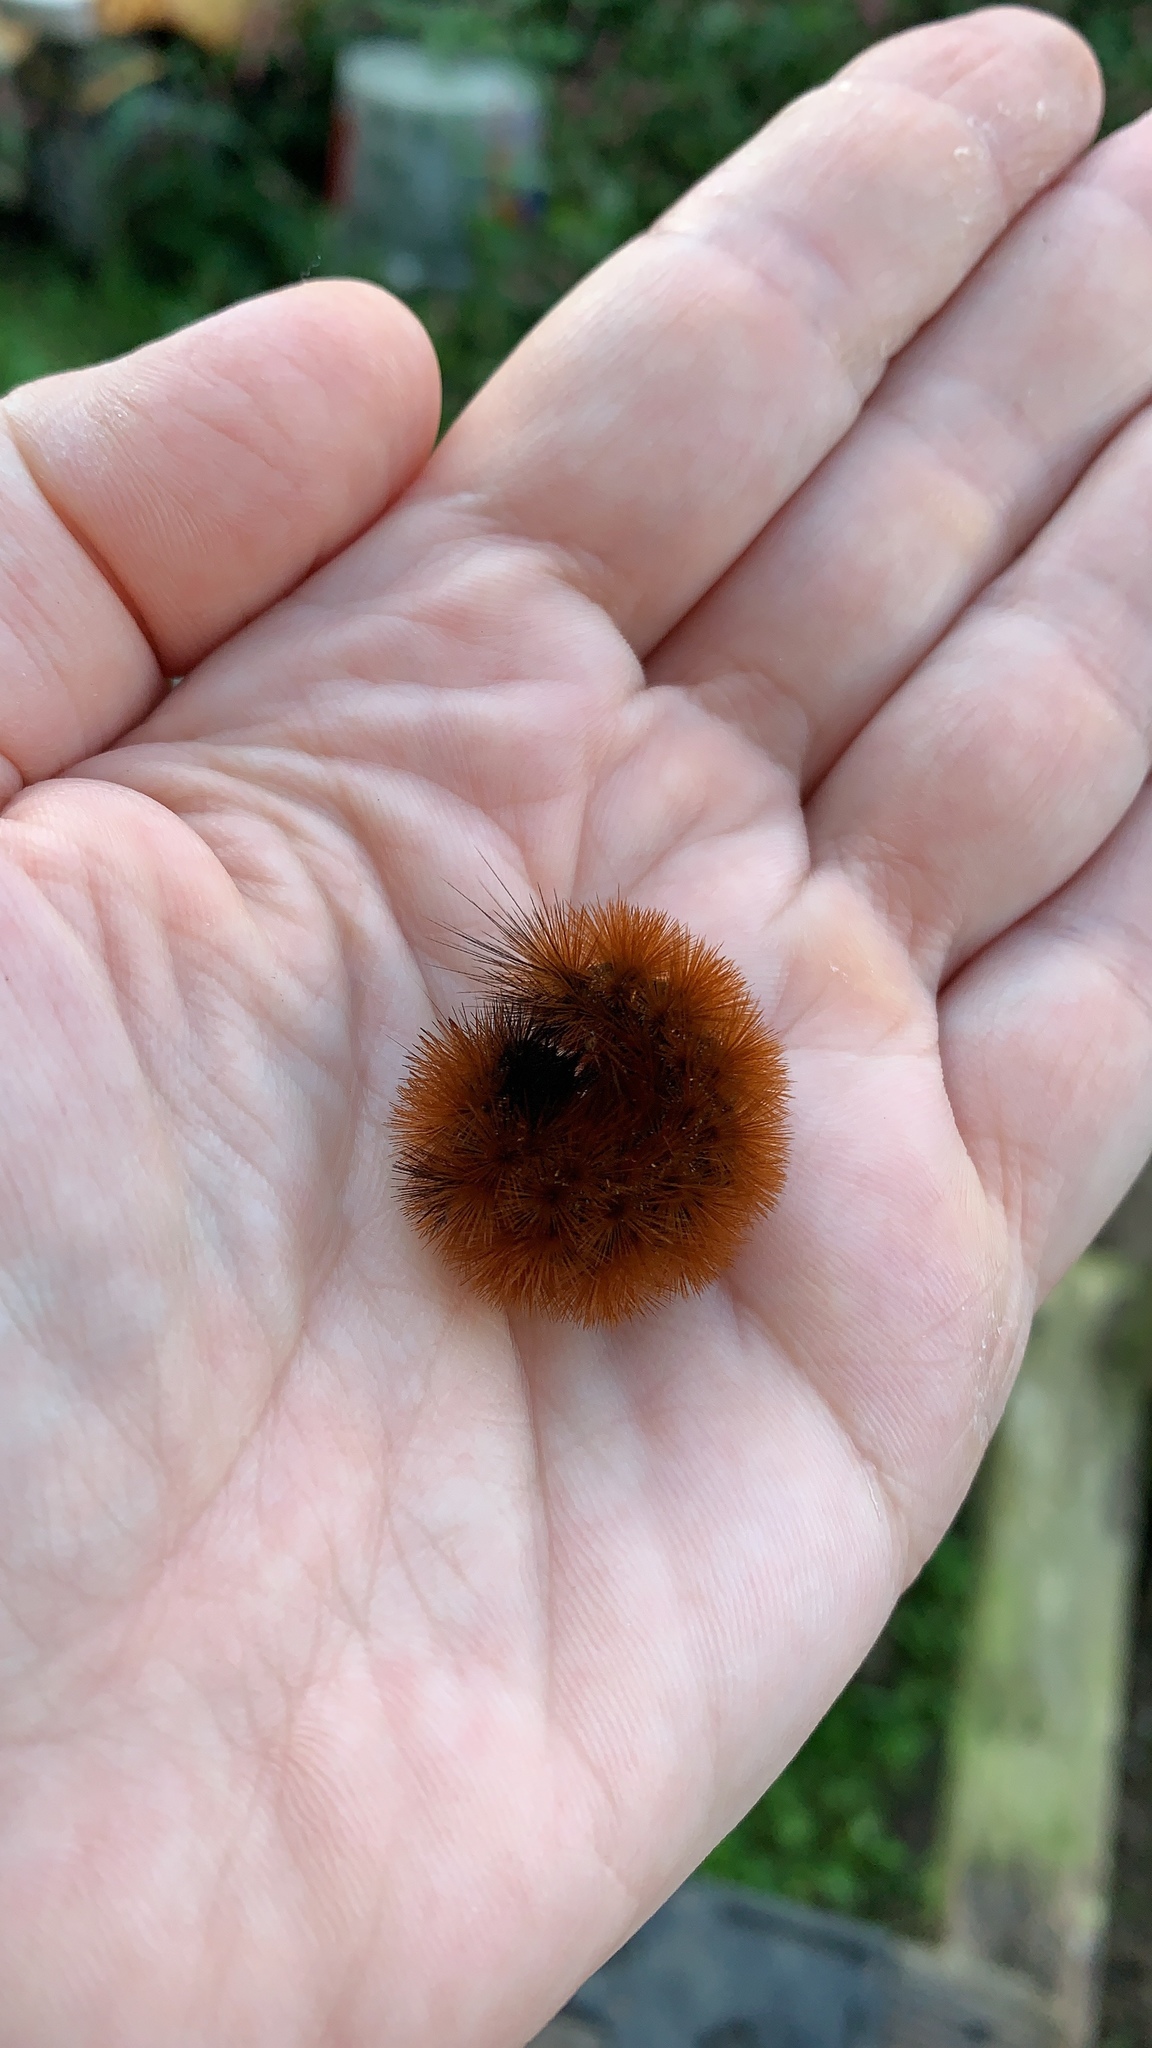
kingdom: Animalia
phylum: Arthropoda
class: Insecta
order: Lepidoptera
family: Erebidae
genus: Pyrrharctia
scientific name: Pyrrharctia isabella
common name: Isabella tiger moth
